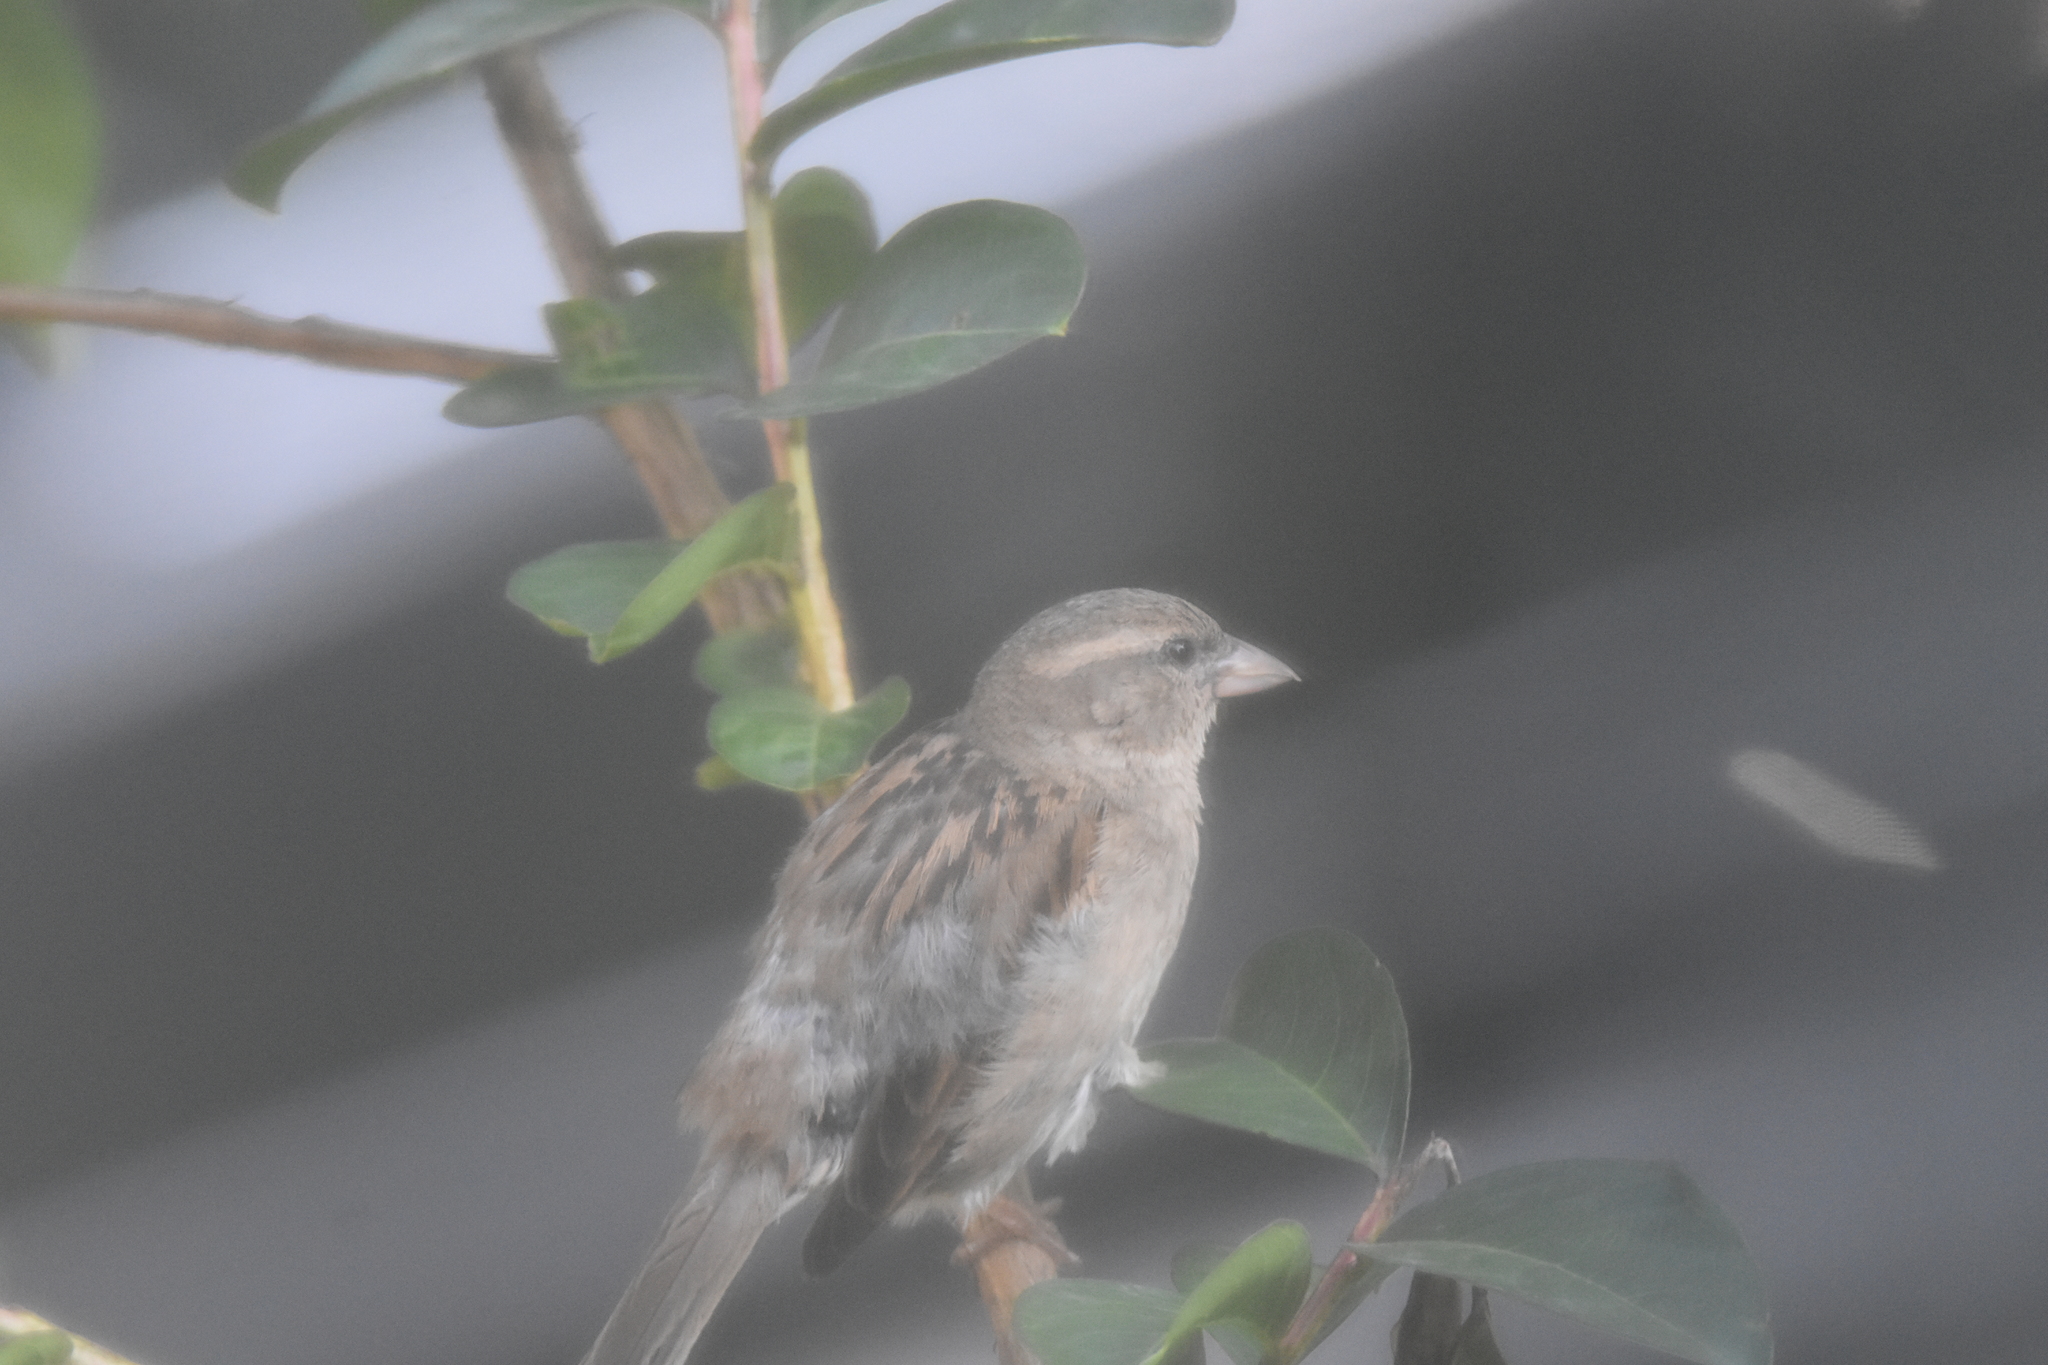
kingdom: Animalia
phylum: Chordata
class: Aves
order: Passeriformes
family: Passeridae
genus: Passer
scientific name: Passer domesticus
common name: House sparrow
